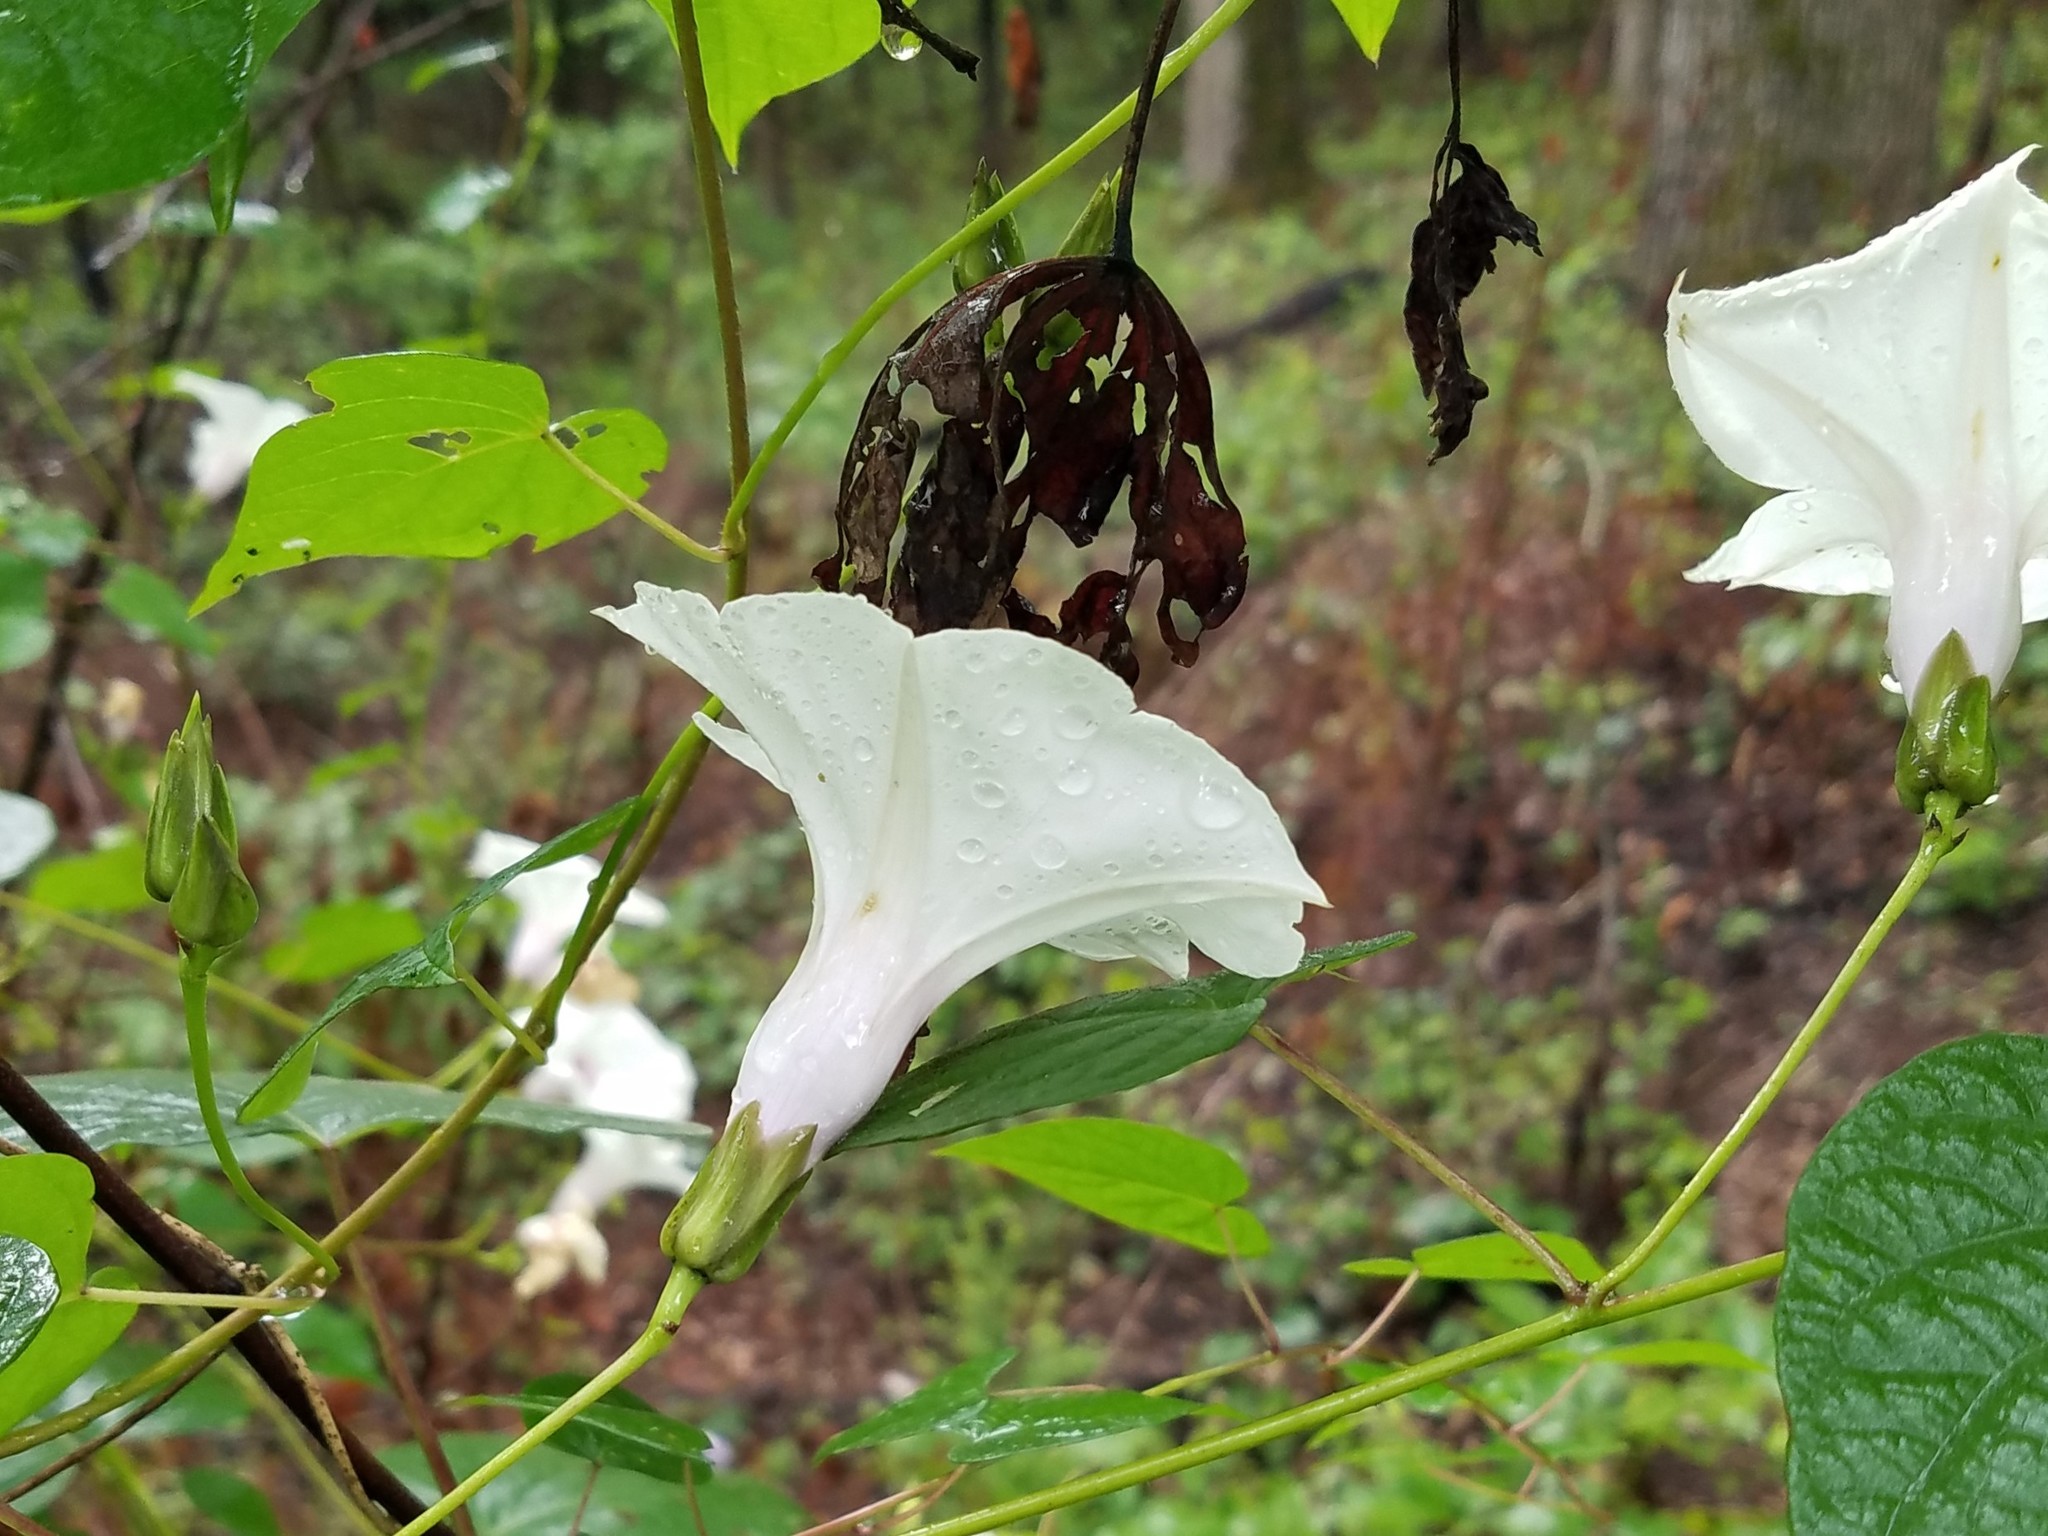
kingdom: Plantae
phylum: Tracheophyta
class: Magnoliopsida
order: Solanales
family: Convolvulaceae
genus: Ipomoea
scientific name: Ipomoea pandurata
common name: Man-of-the-earth
